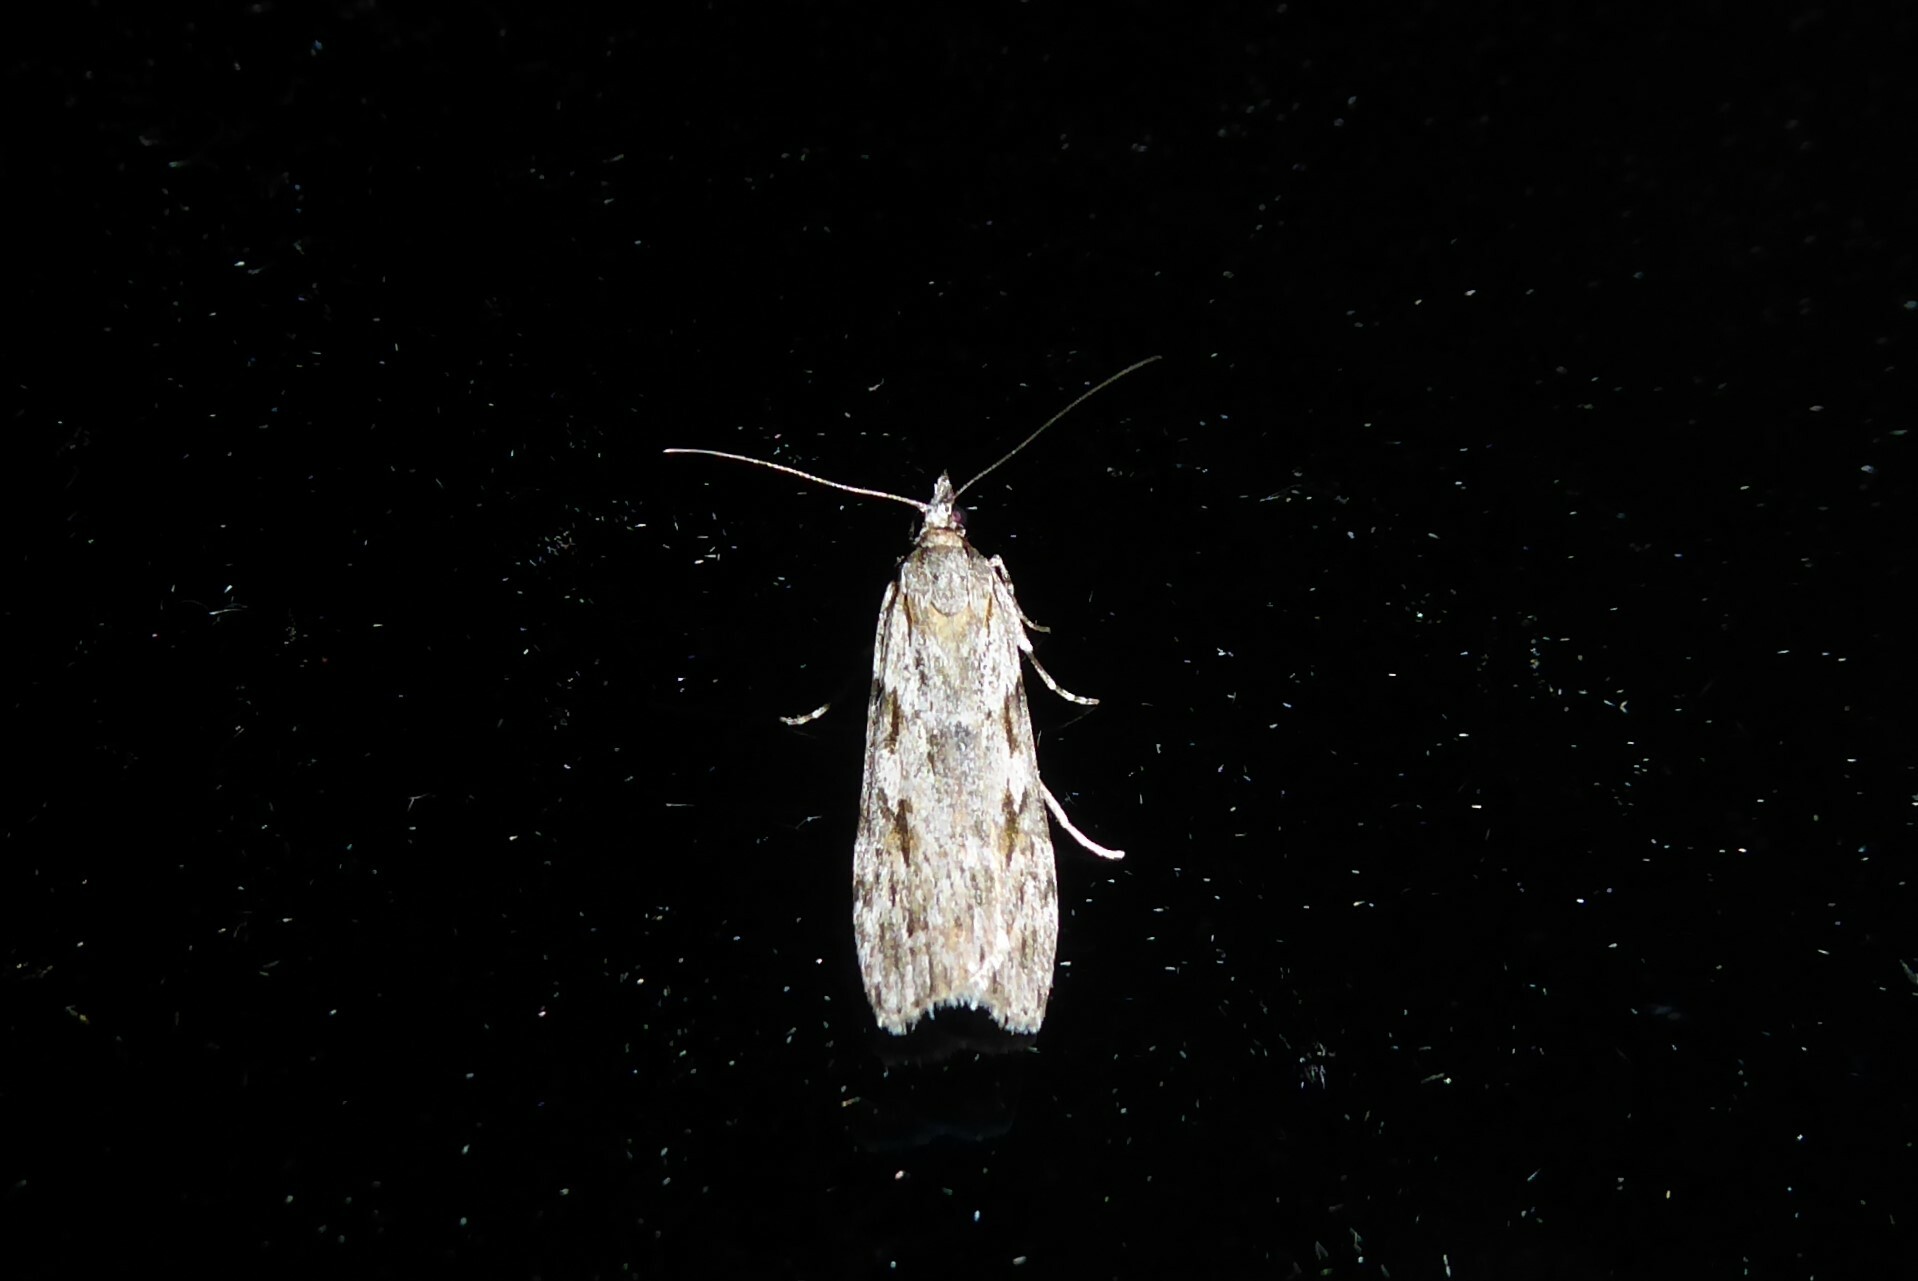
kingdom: Animalia
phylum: Arthropoda
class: Insecta
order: Lepidoptera
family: Crambidae
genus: Scoparia
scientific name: Scoparia halopis
